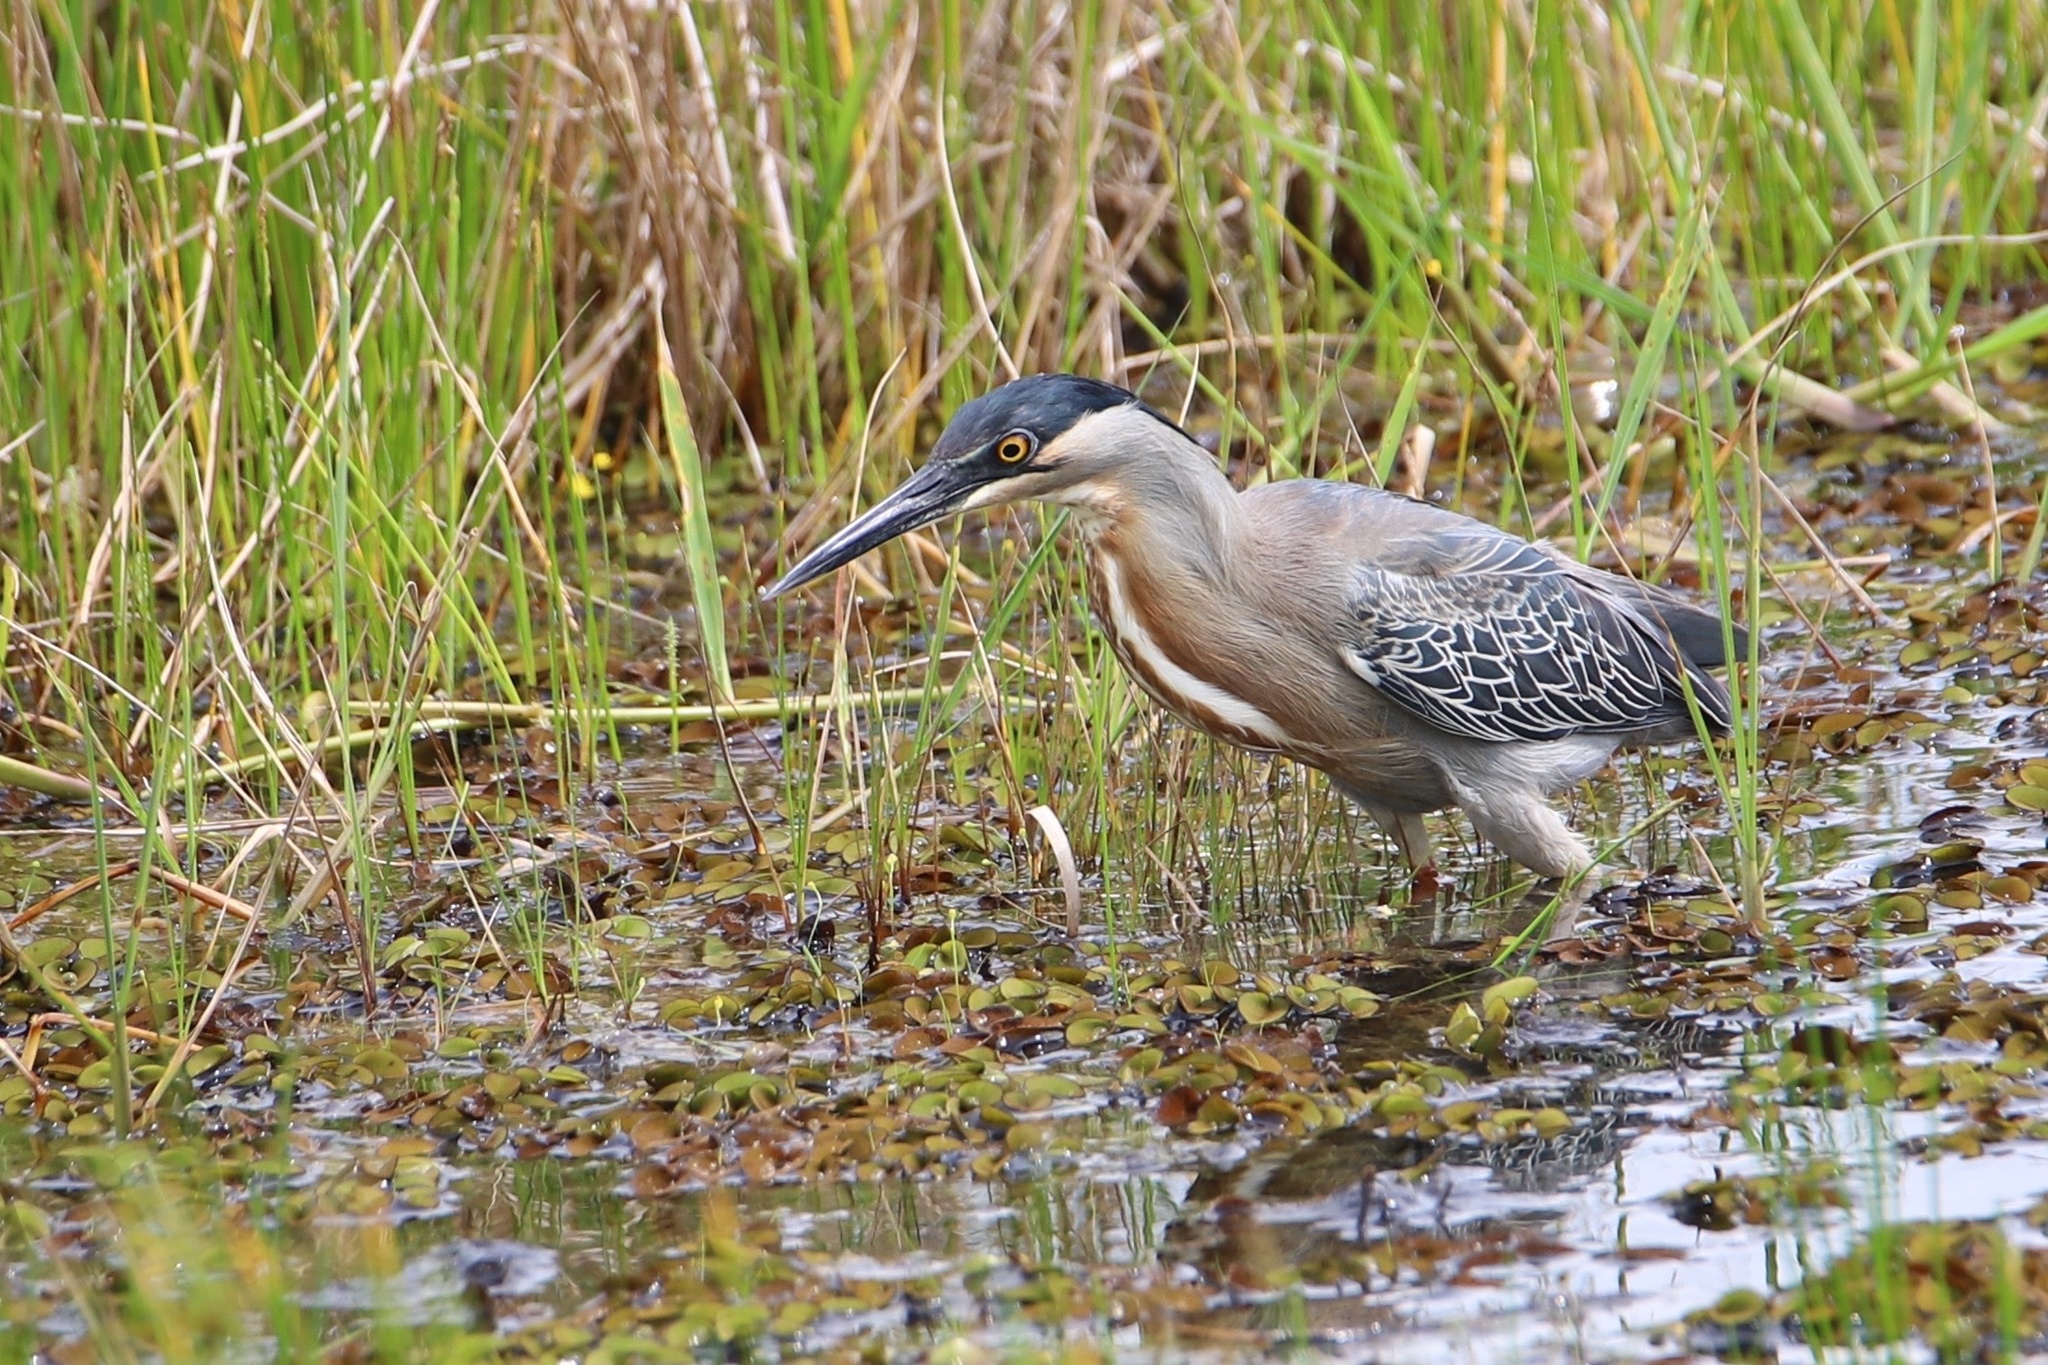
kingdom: Animalia
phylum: Chordata
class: Aves
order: Pelecaniformes
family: Ardeidae
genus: Butorides
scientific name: Butorides striata
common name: Striated heron
